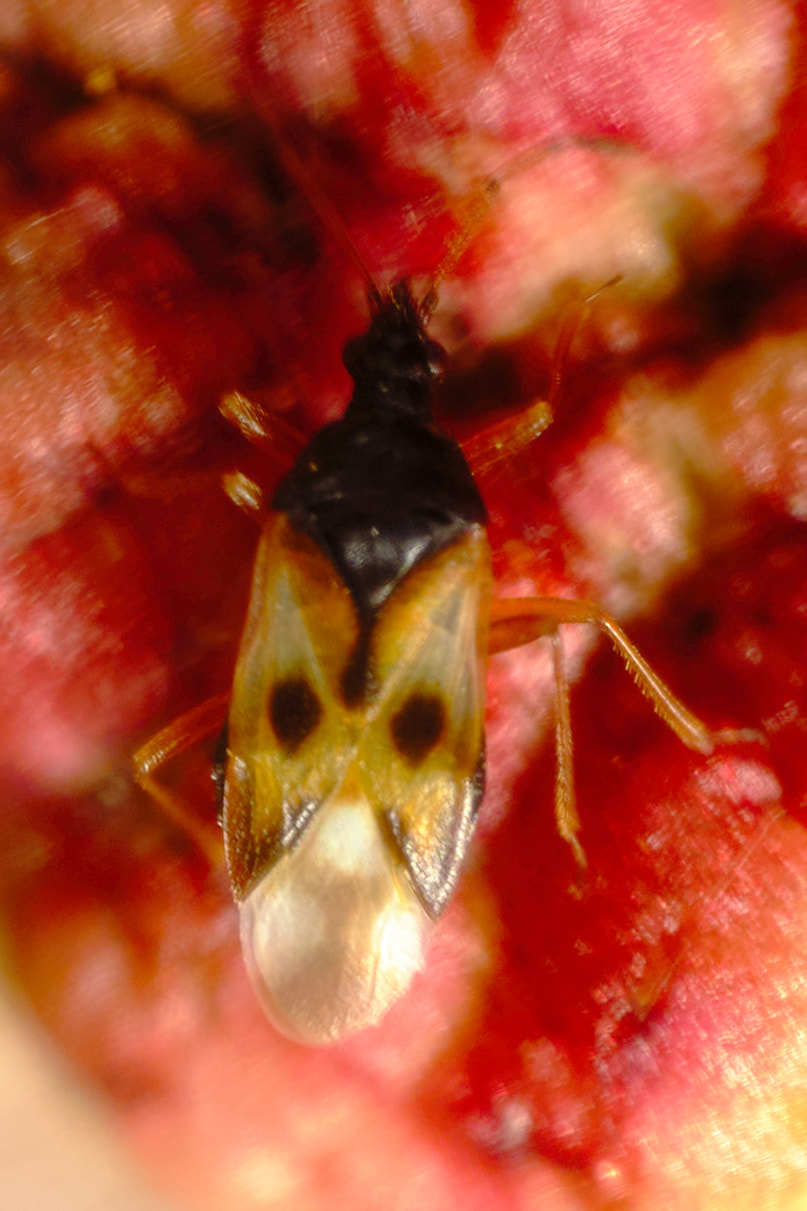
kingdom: Animalia
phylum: Arthropoda
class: Insecta
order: Hemiptera
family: Anthocoridae
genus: Anthocoris
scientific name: Anthocoris nemorum
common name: Minute pirate bug
